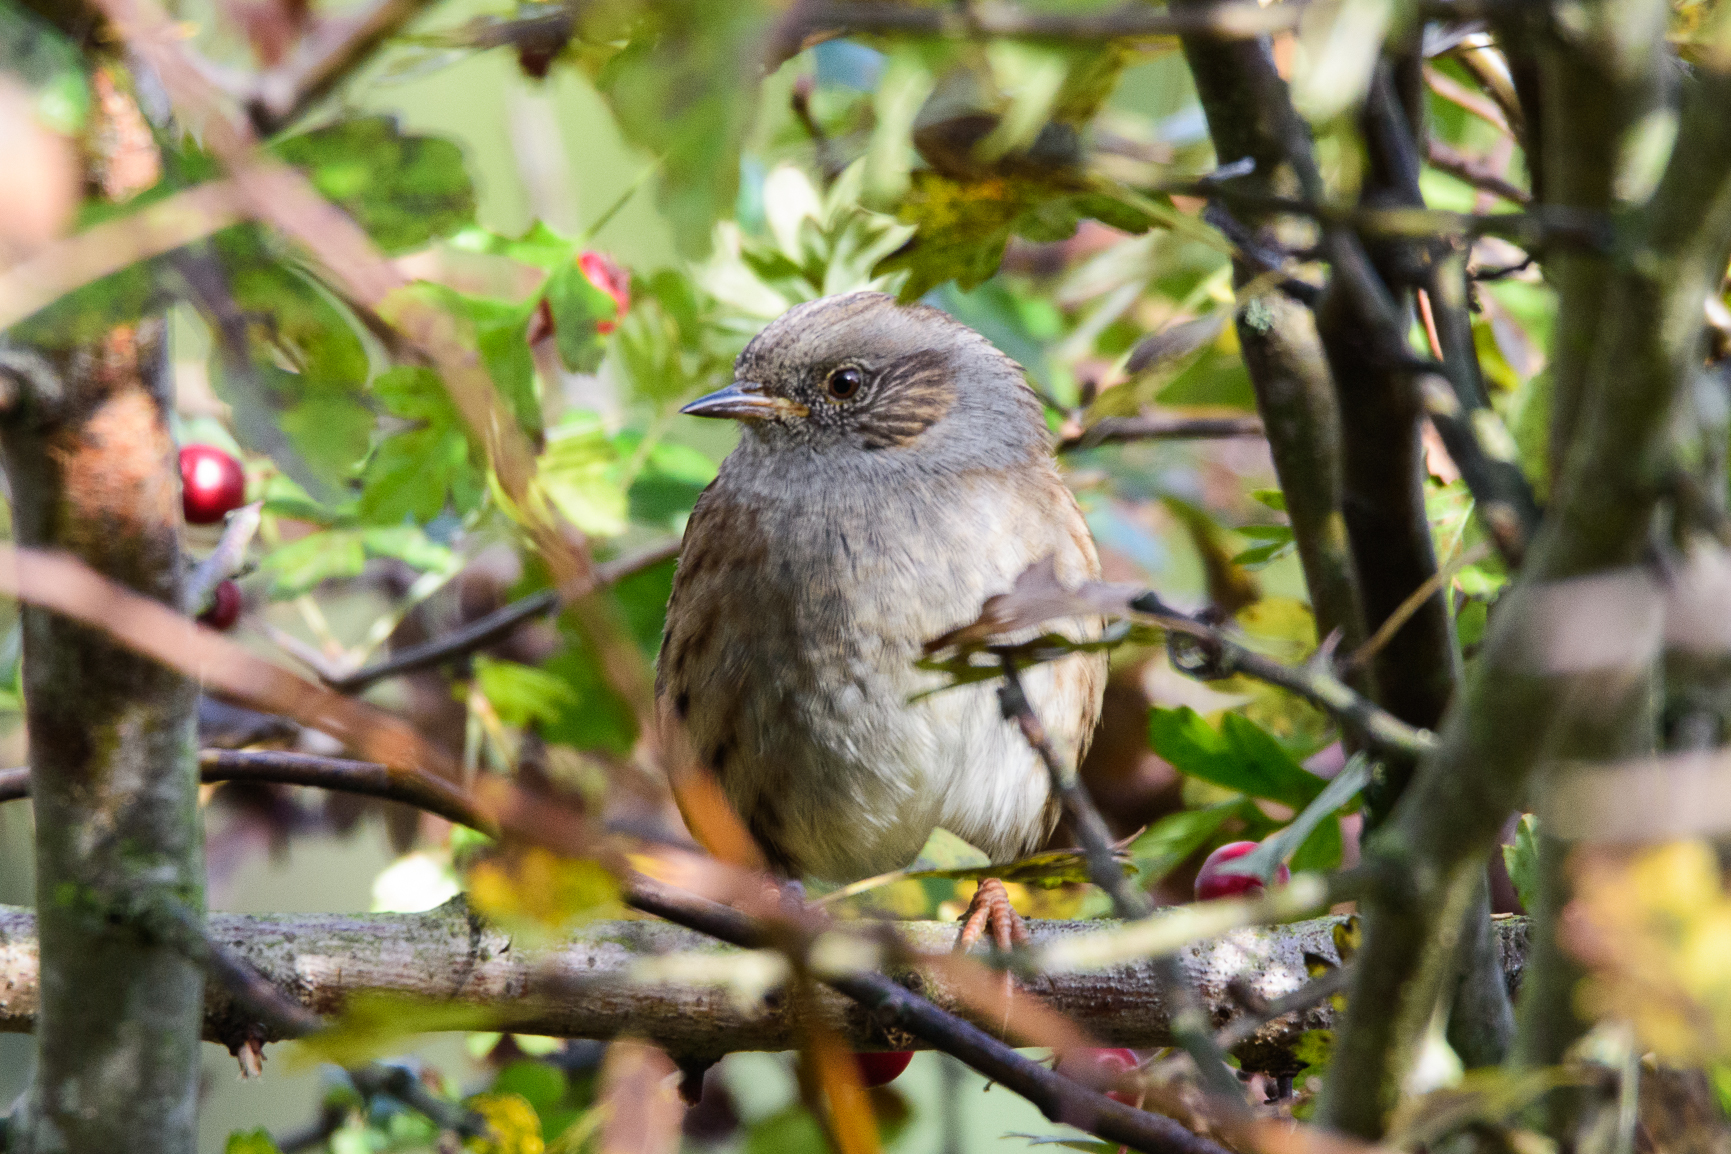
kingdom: Animalia
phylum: Chordata
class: Aves
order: Passeriformes
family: Prunellidae
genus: Prunella
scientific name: Prunella modularis
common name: Dunnock
